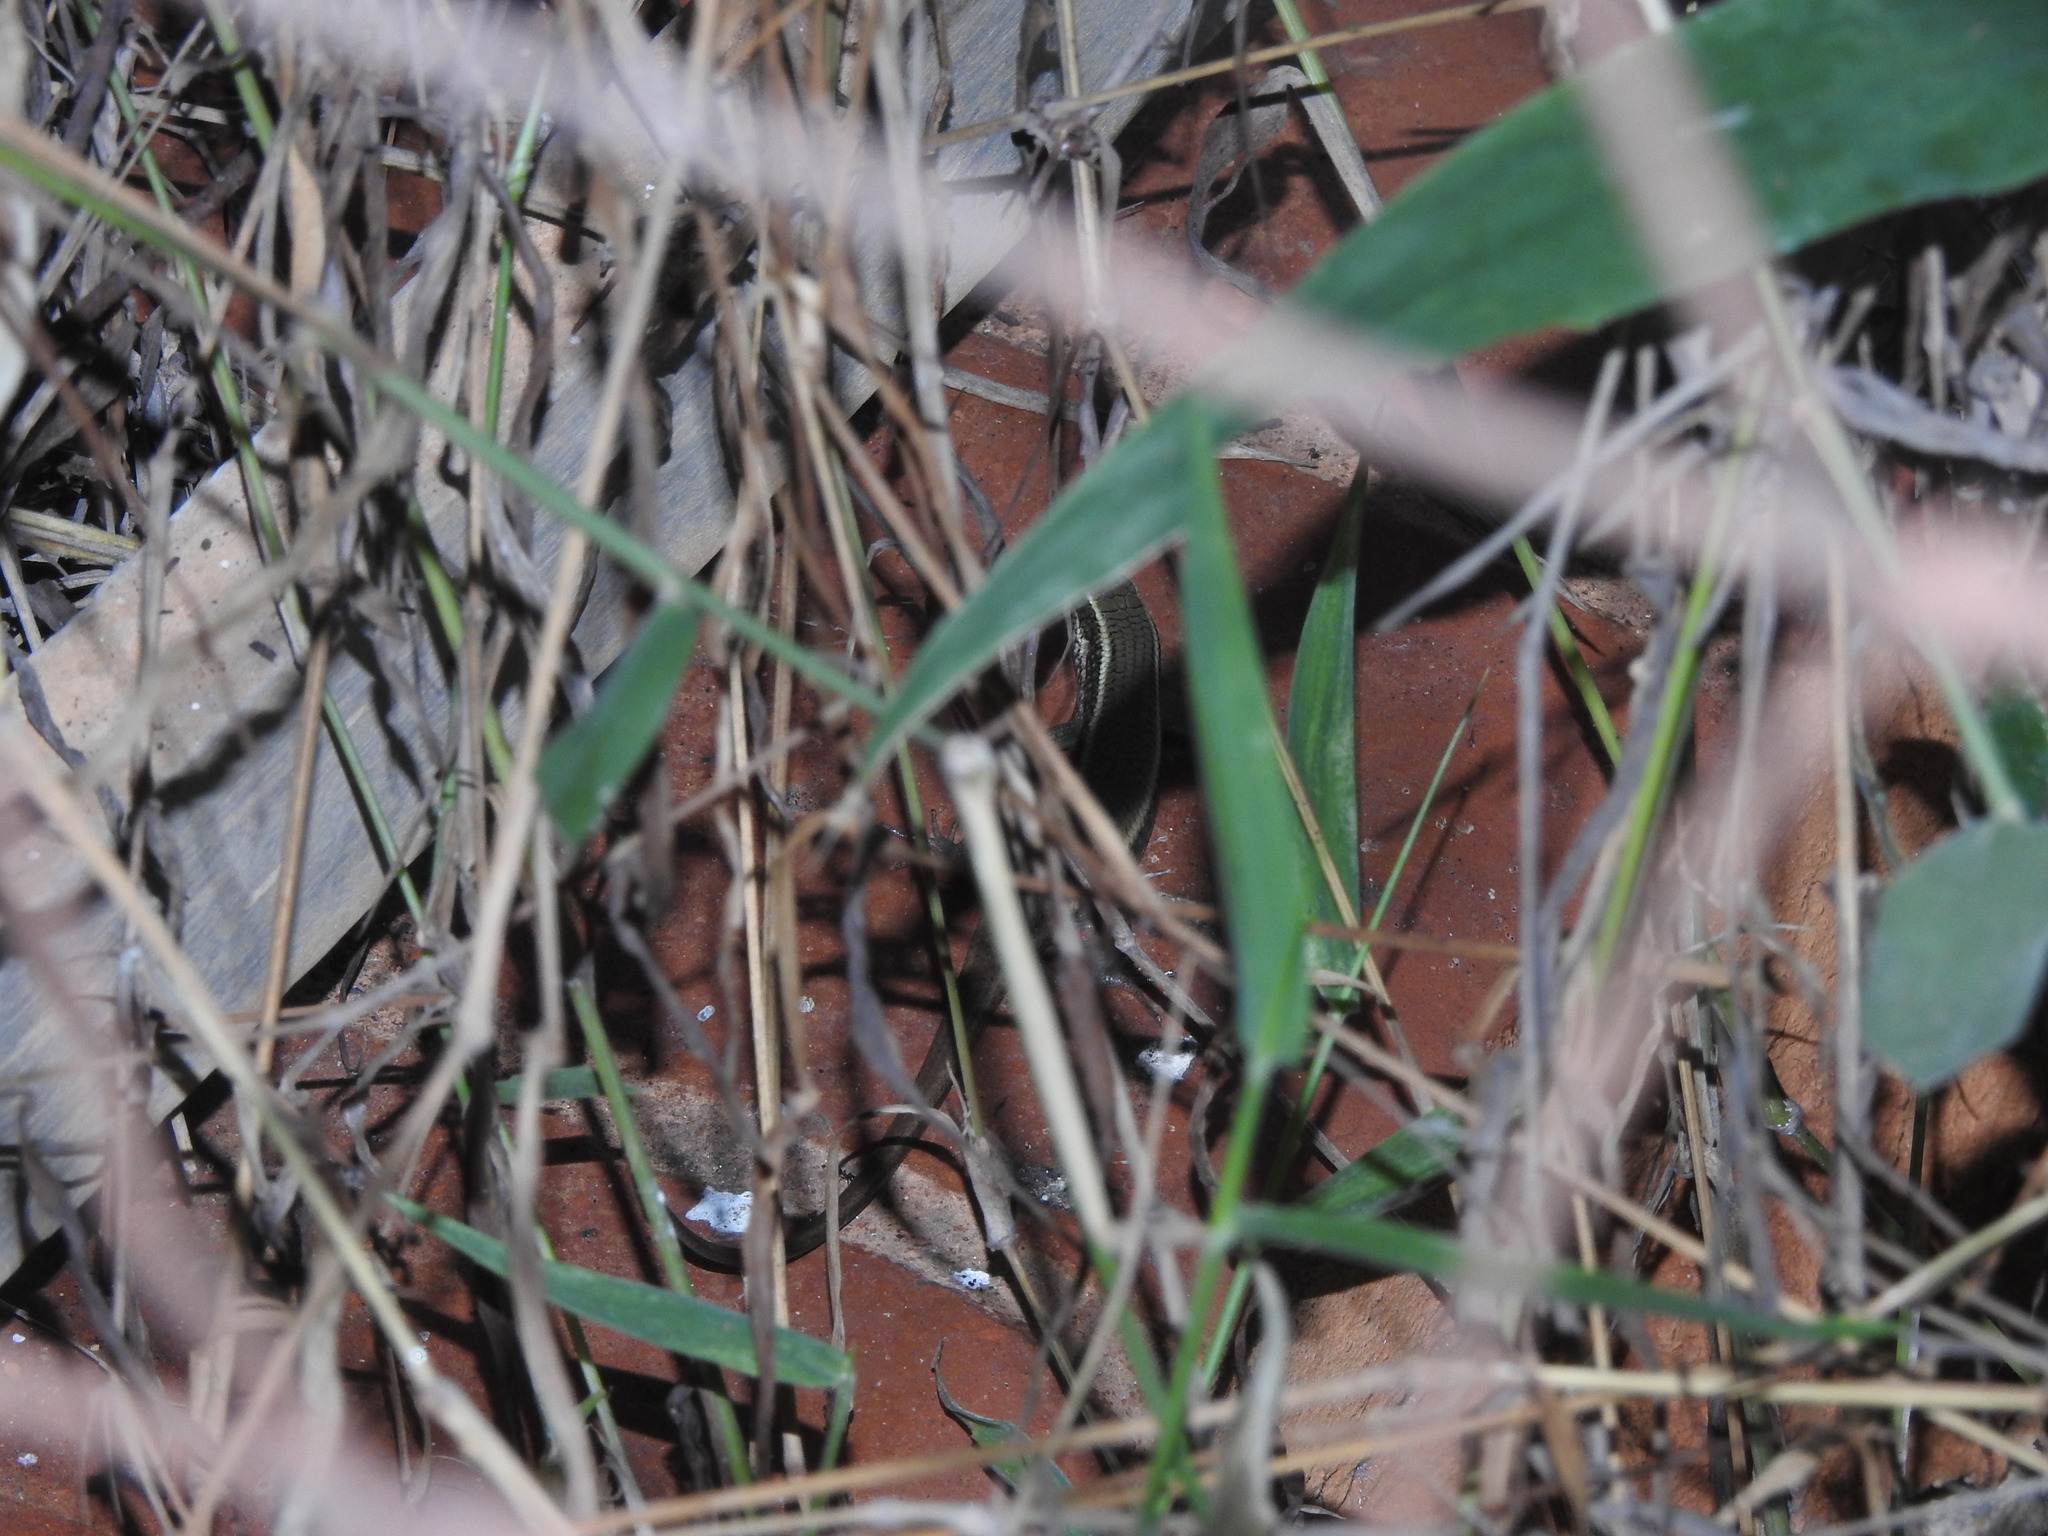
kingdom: Animalia
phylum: Chordata
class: Squamata
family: Scincidae
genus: Eutropis
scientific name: Eutropis carinata
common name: Keeled indian mabuya
